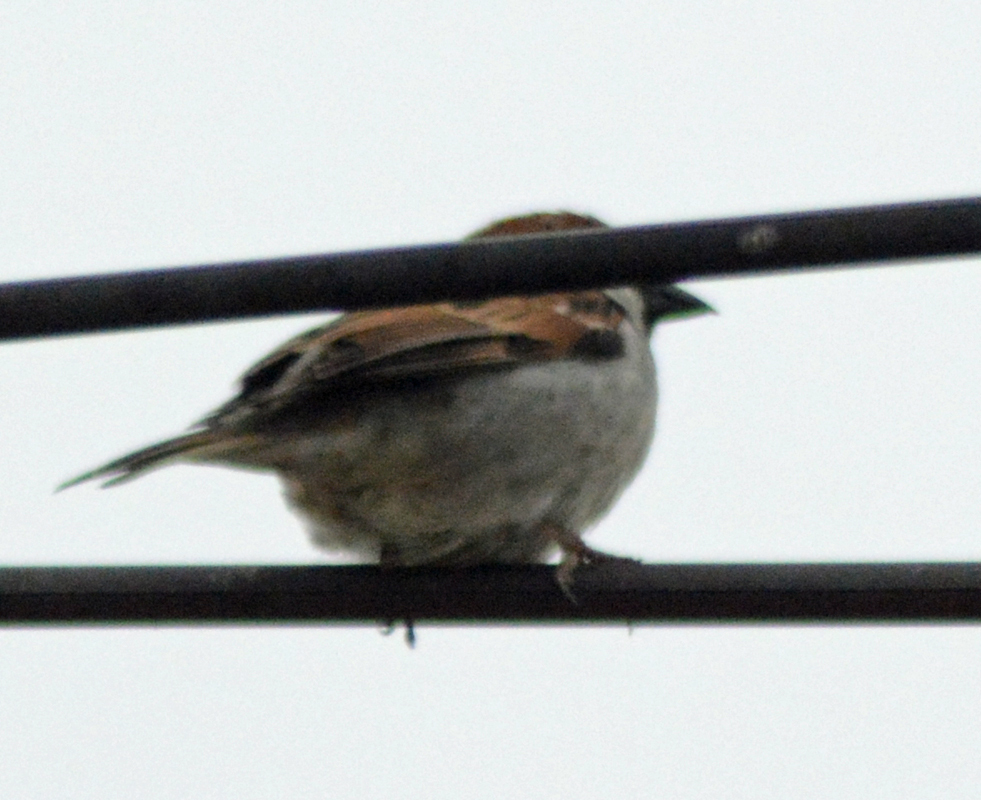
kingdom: Animalia
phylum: Chordata
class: Aves
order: Passeriformes
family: Passeridae
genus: Passer
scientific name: Passer domesticus
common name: House sparrow
